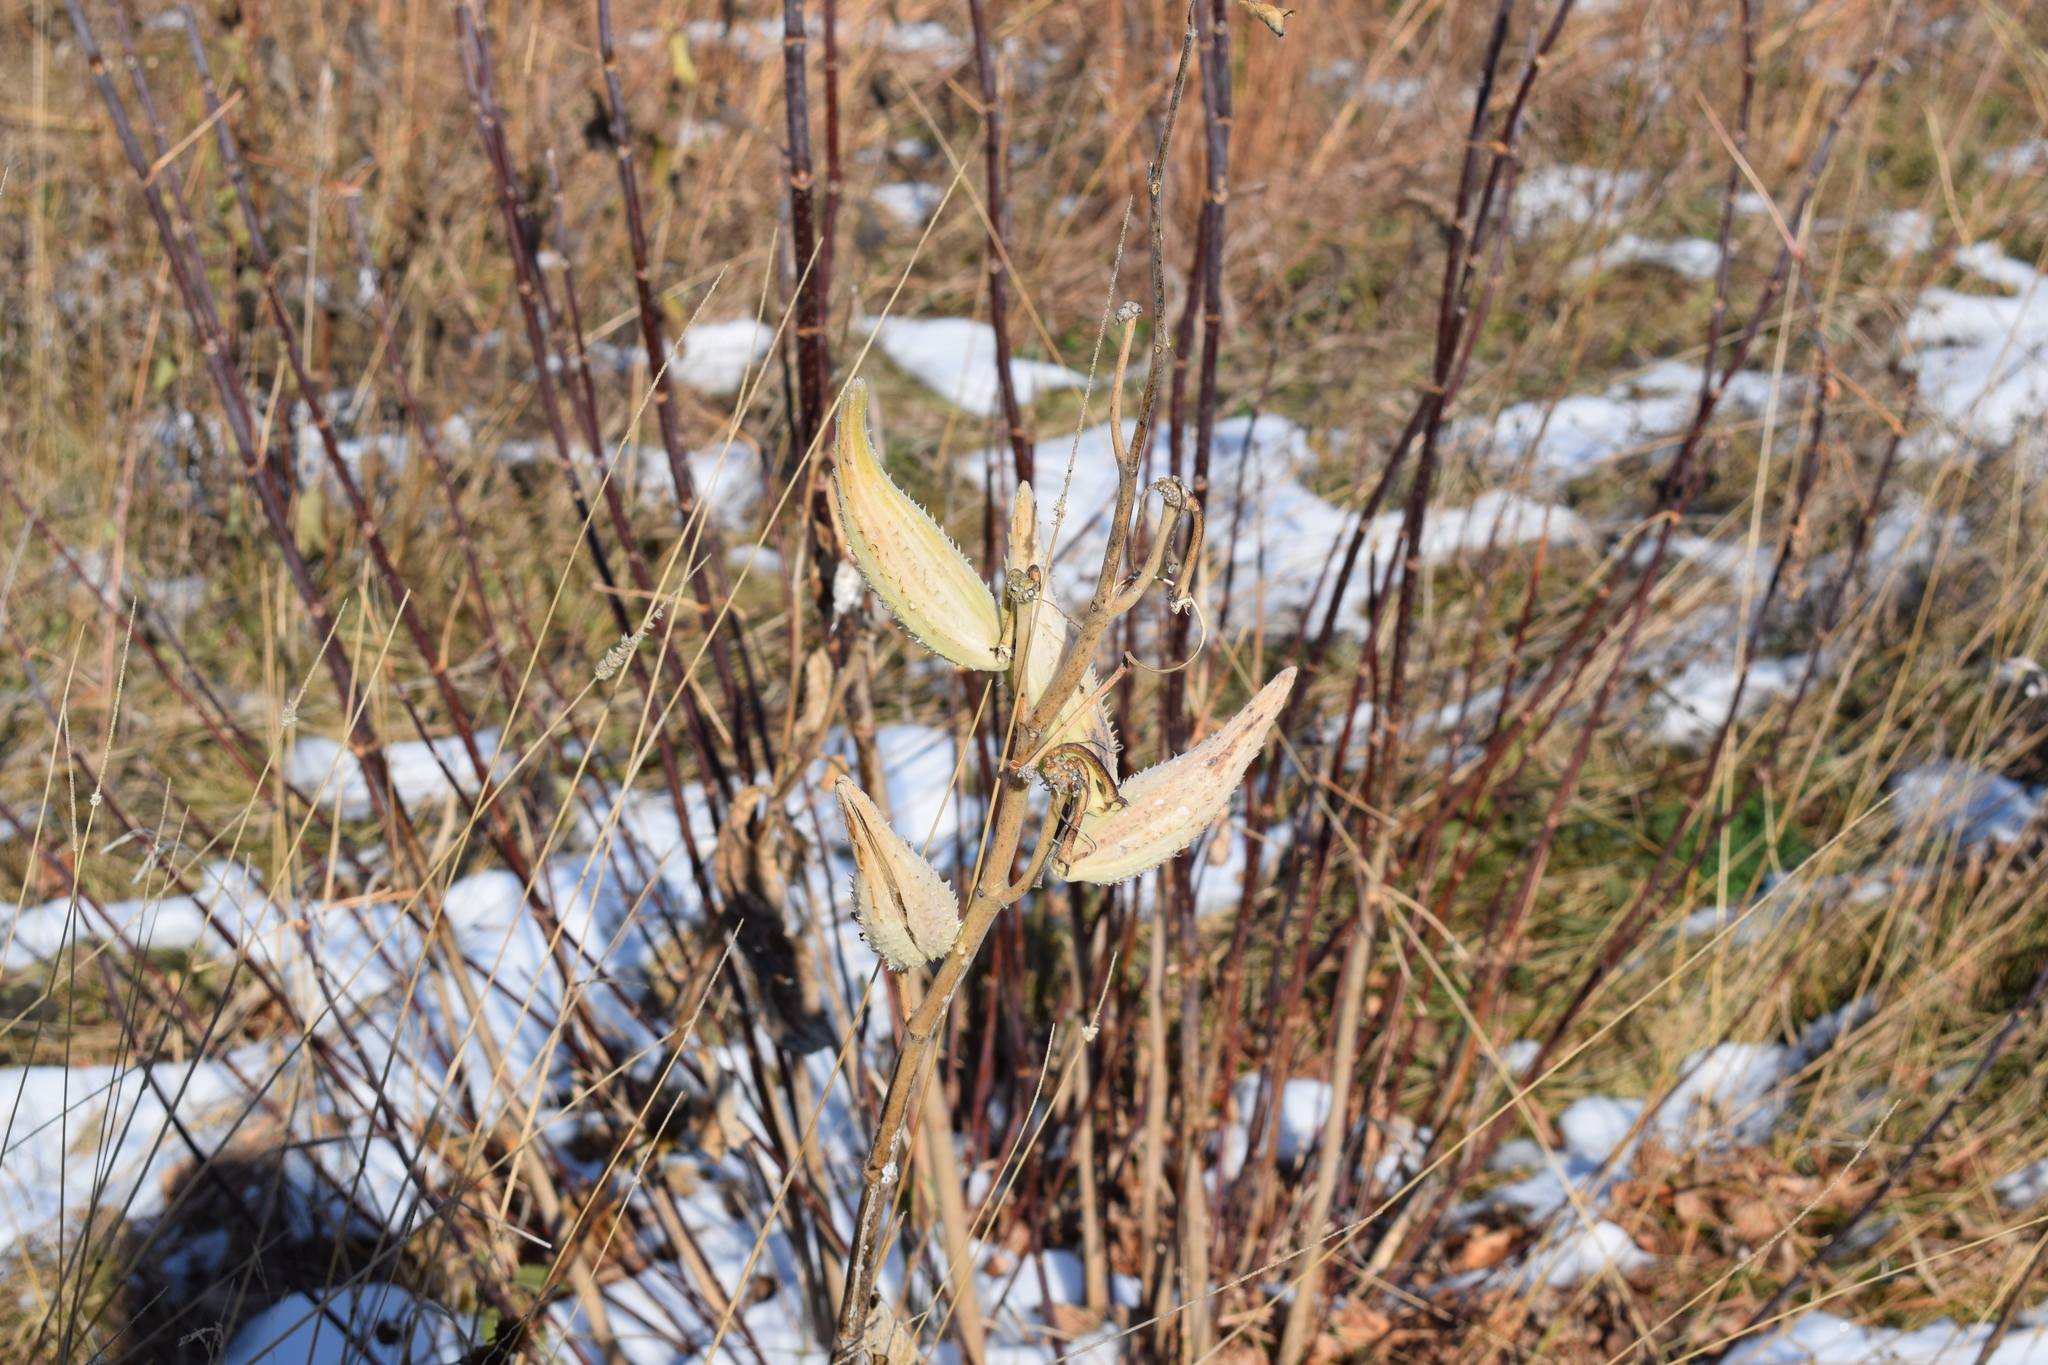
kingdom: Plantae
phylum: Tracheophyta
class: Magnoliopsida
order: Gentianales
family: Apocynaceae
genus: Asclepias
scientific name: Asclepias syriaca
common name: Common milkweed
